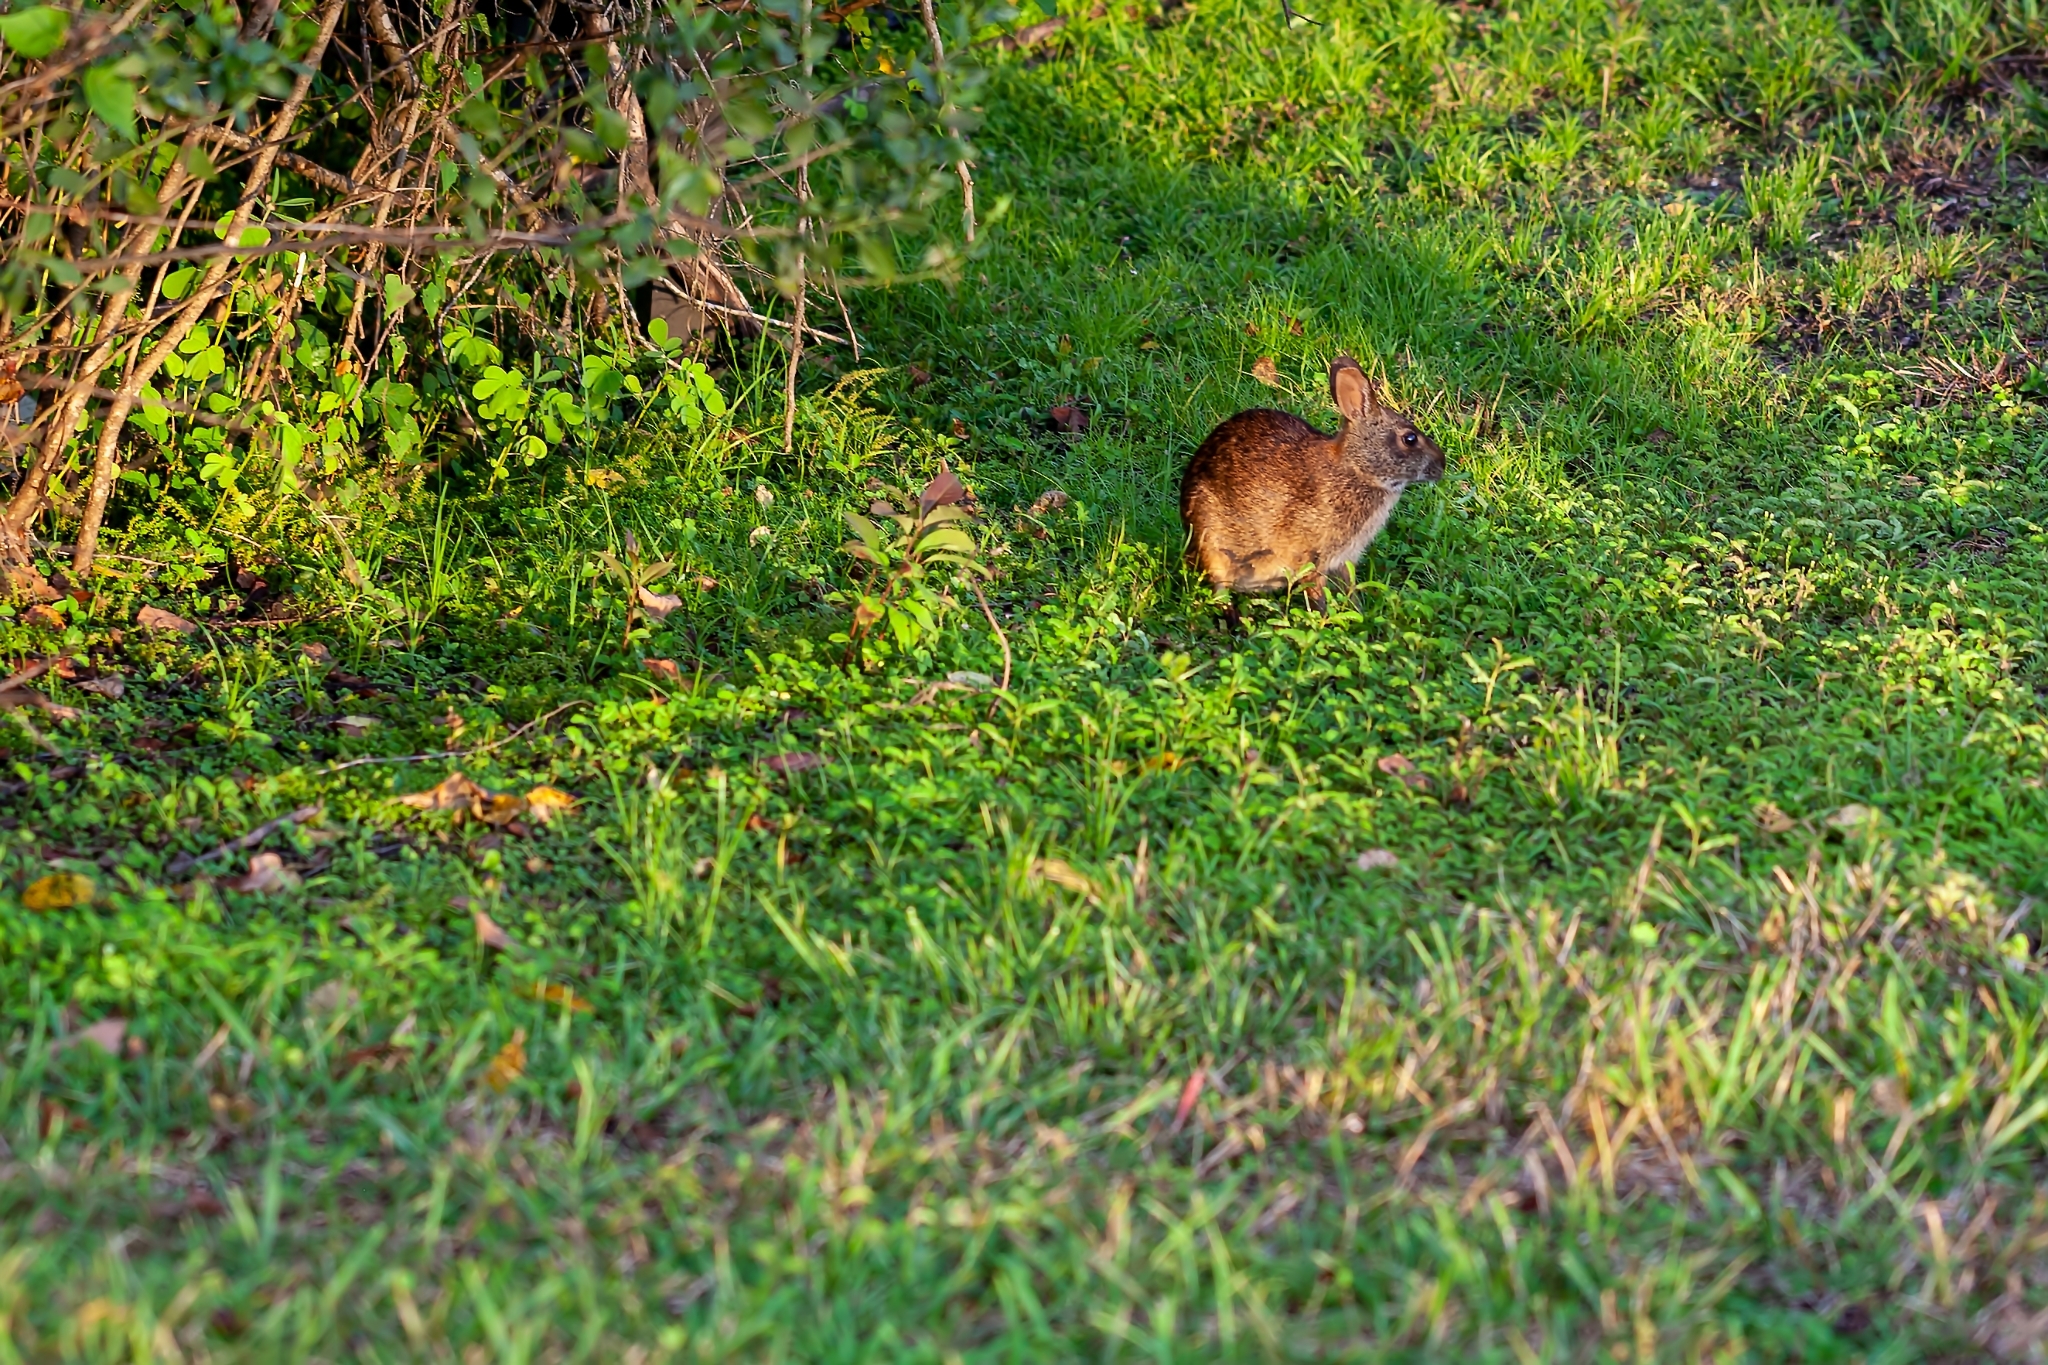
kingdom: Animalia
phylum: Chordata
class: Mammalia
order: Lagomorpha
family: Leporidae
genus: Sylvilagus
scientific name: Sylvilagus palustris
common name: Marsh rabbit
